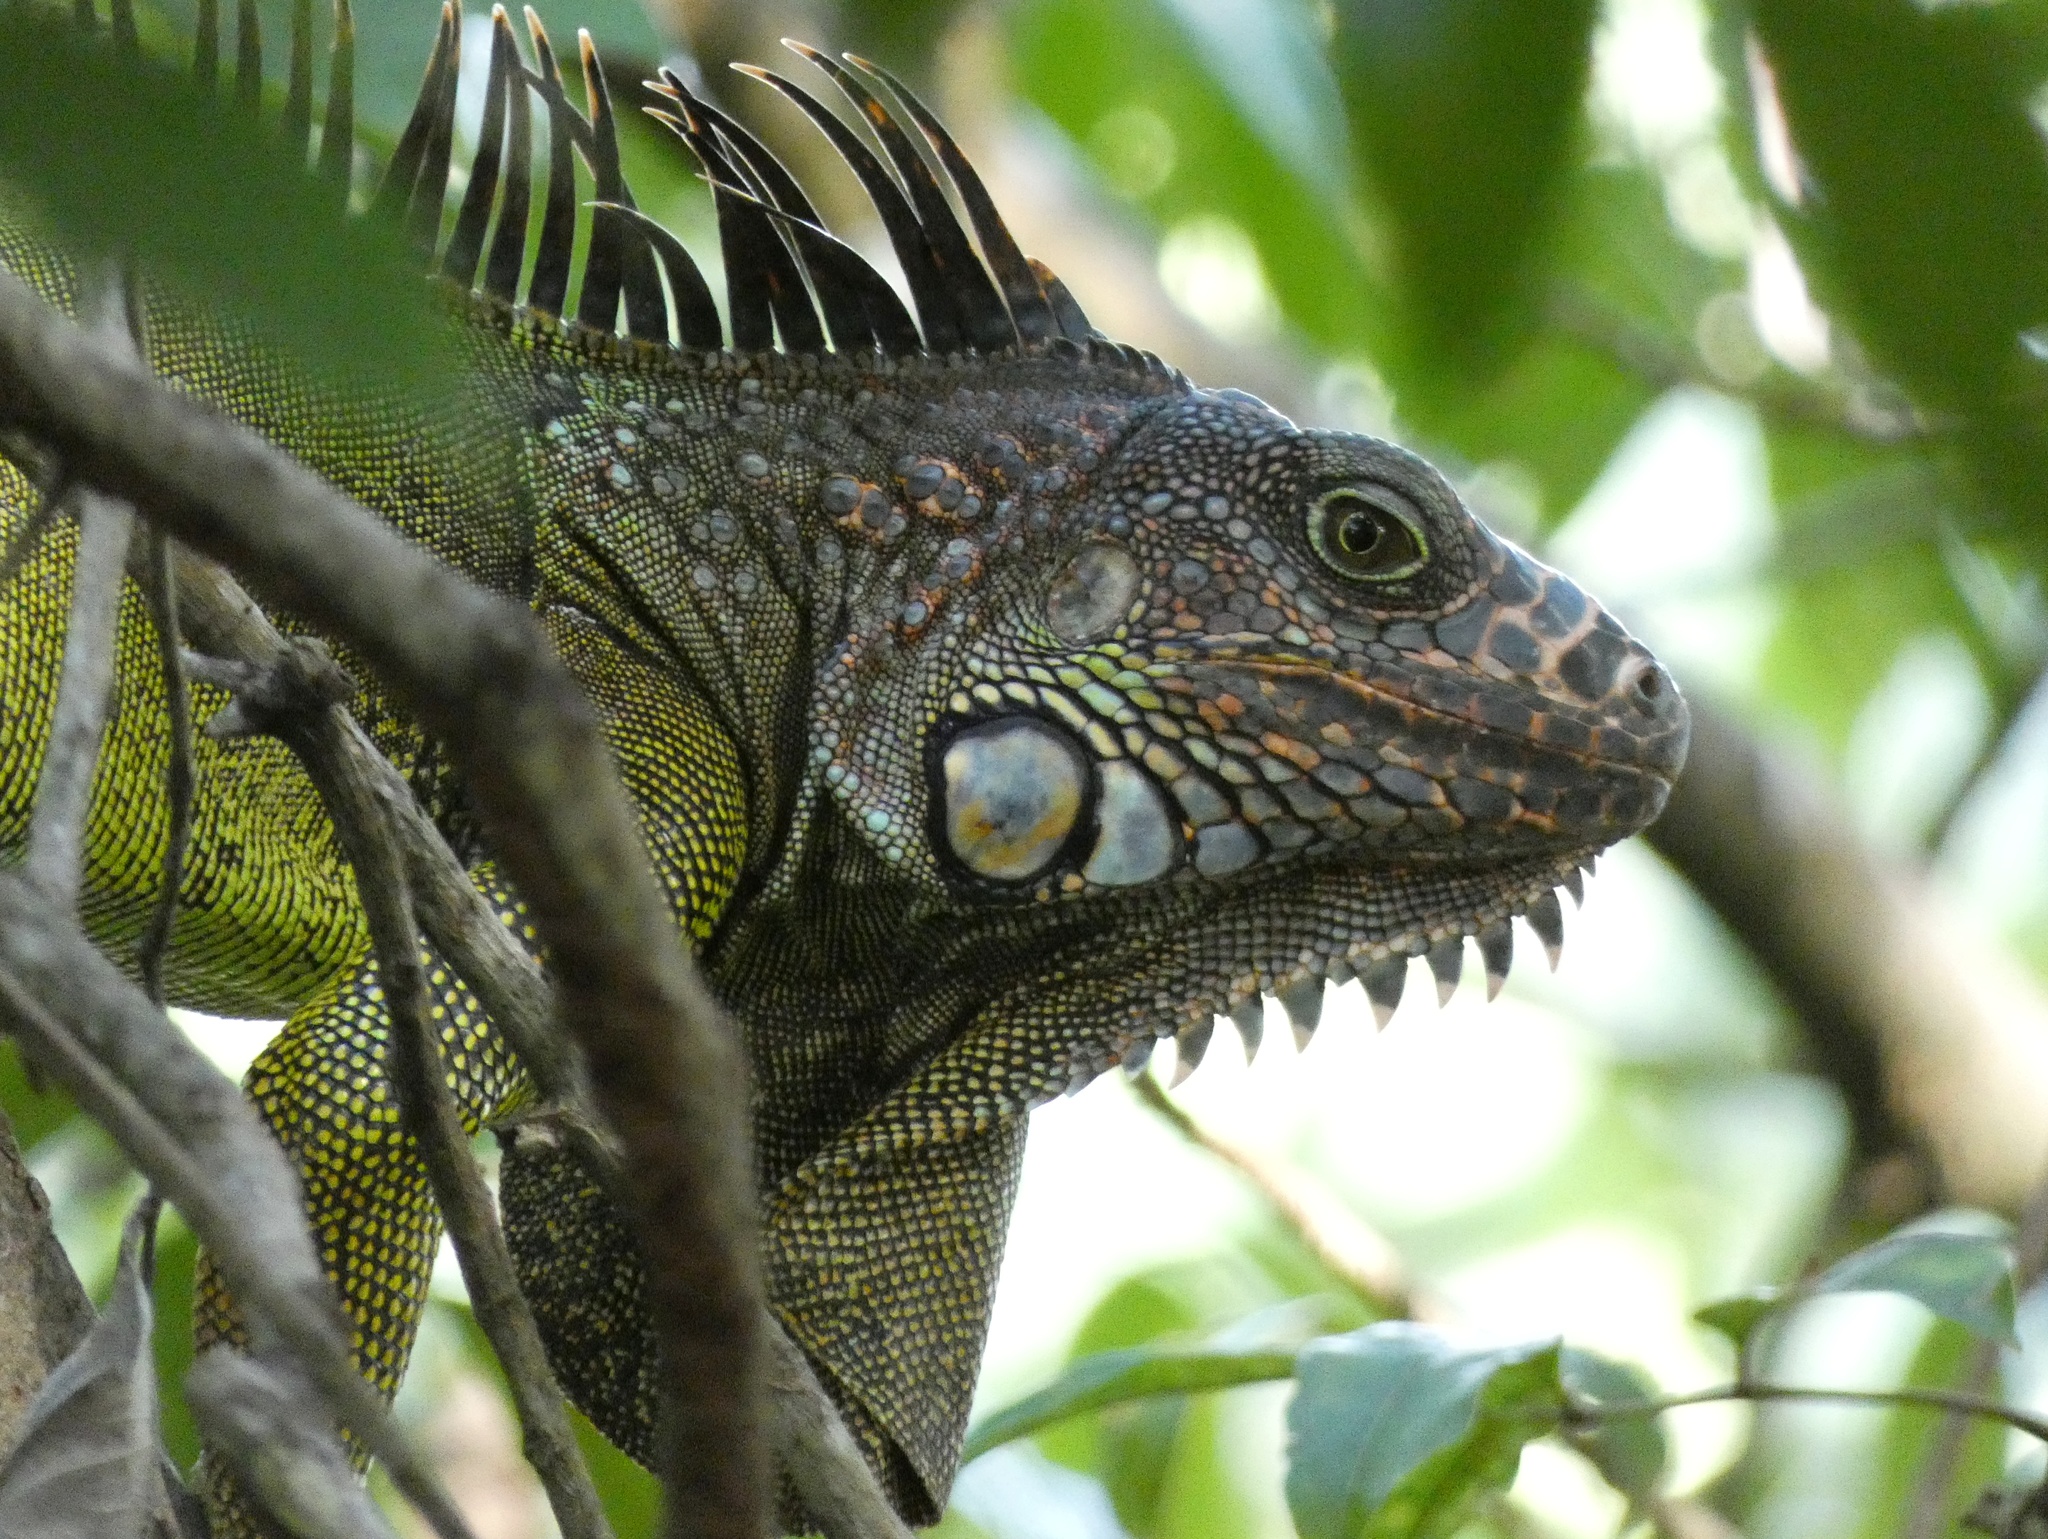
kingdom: Animalia
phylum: Chordata
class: Squamata
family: Iguanidae
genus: Iguana
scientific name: Iguana iguana
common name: Green iguana
